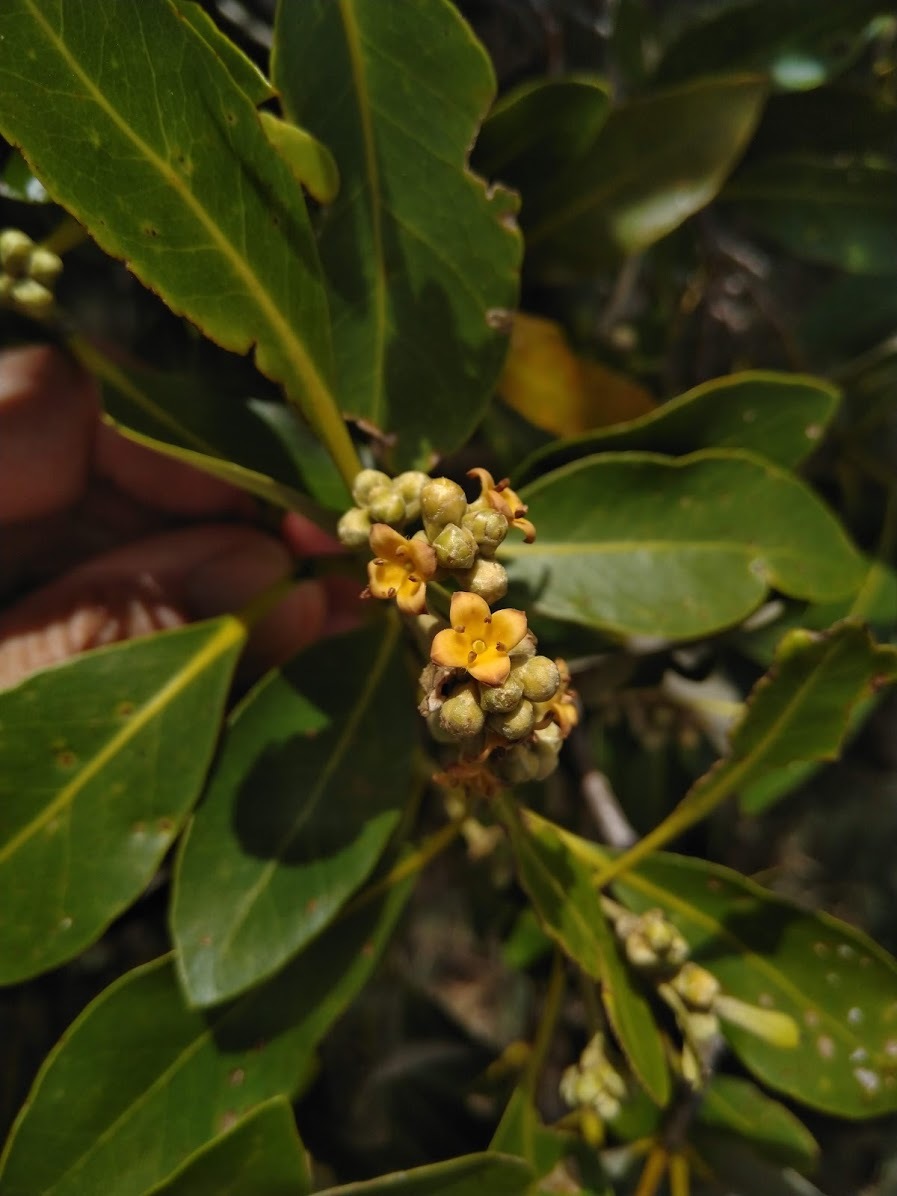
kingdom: Plantae
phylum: Tracheophyta
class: Magnoliopsida
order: Lamiales
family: Acanthaceae
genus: Avicennia
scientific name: Avicennia marina
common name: Gray mangrove
